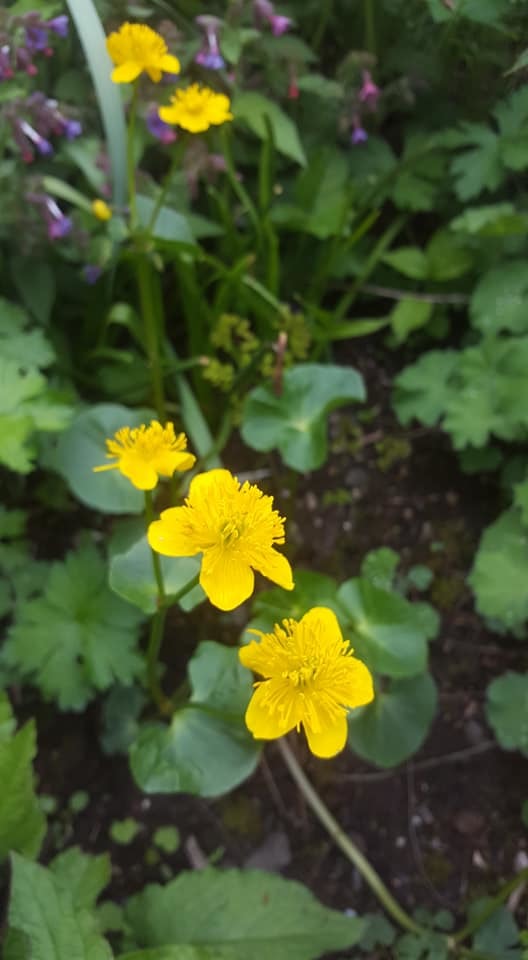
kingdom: Plantae
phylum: Tracheophyta
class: Magnoliopsida
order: Ranunculales
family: Ranunculaceae
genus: Caltha
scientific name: Caltha palustris
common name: Marsh marigold
